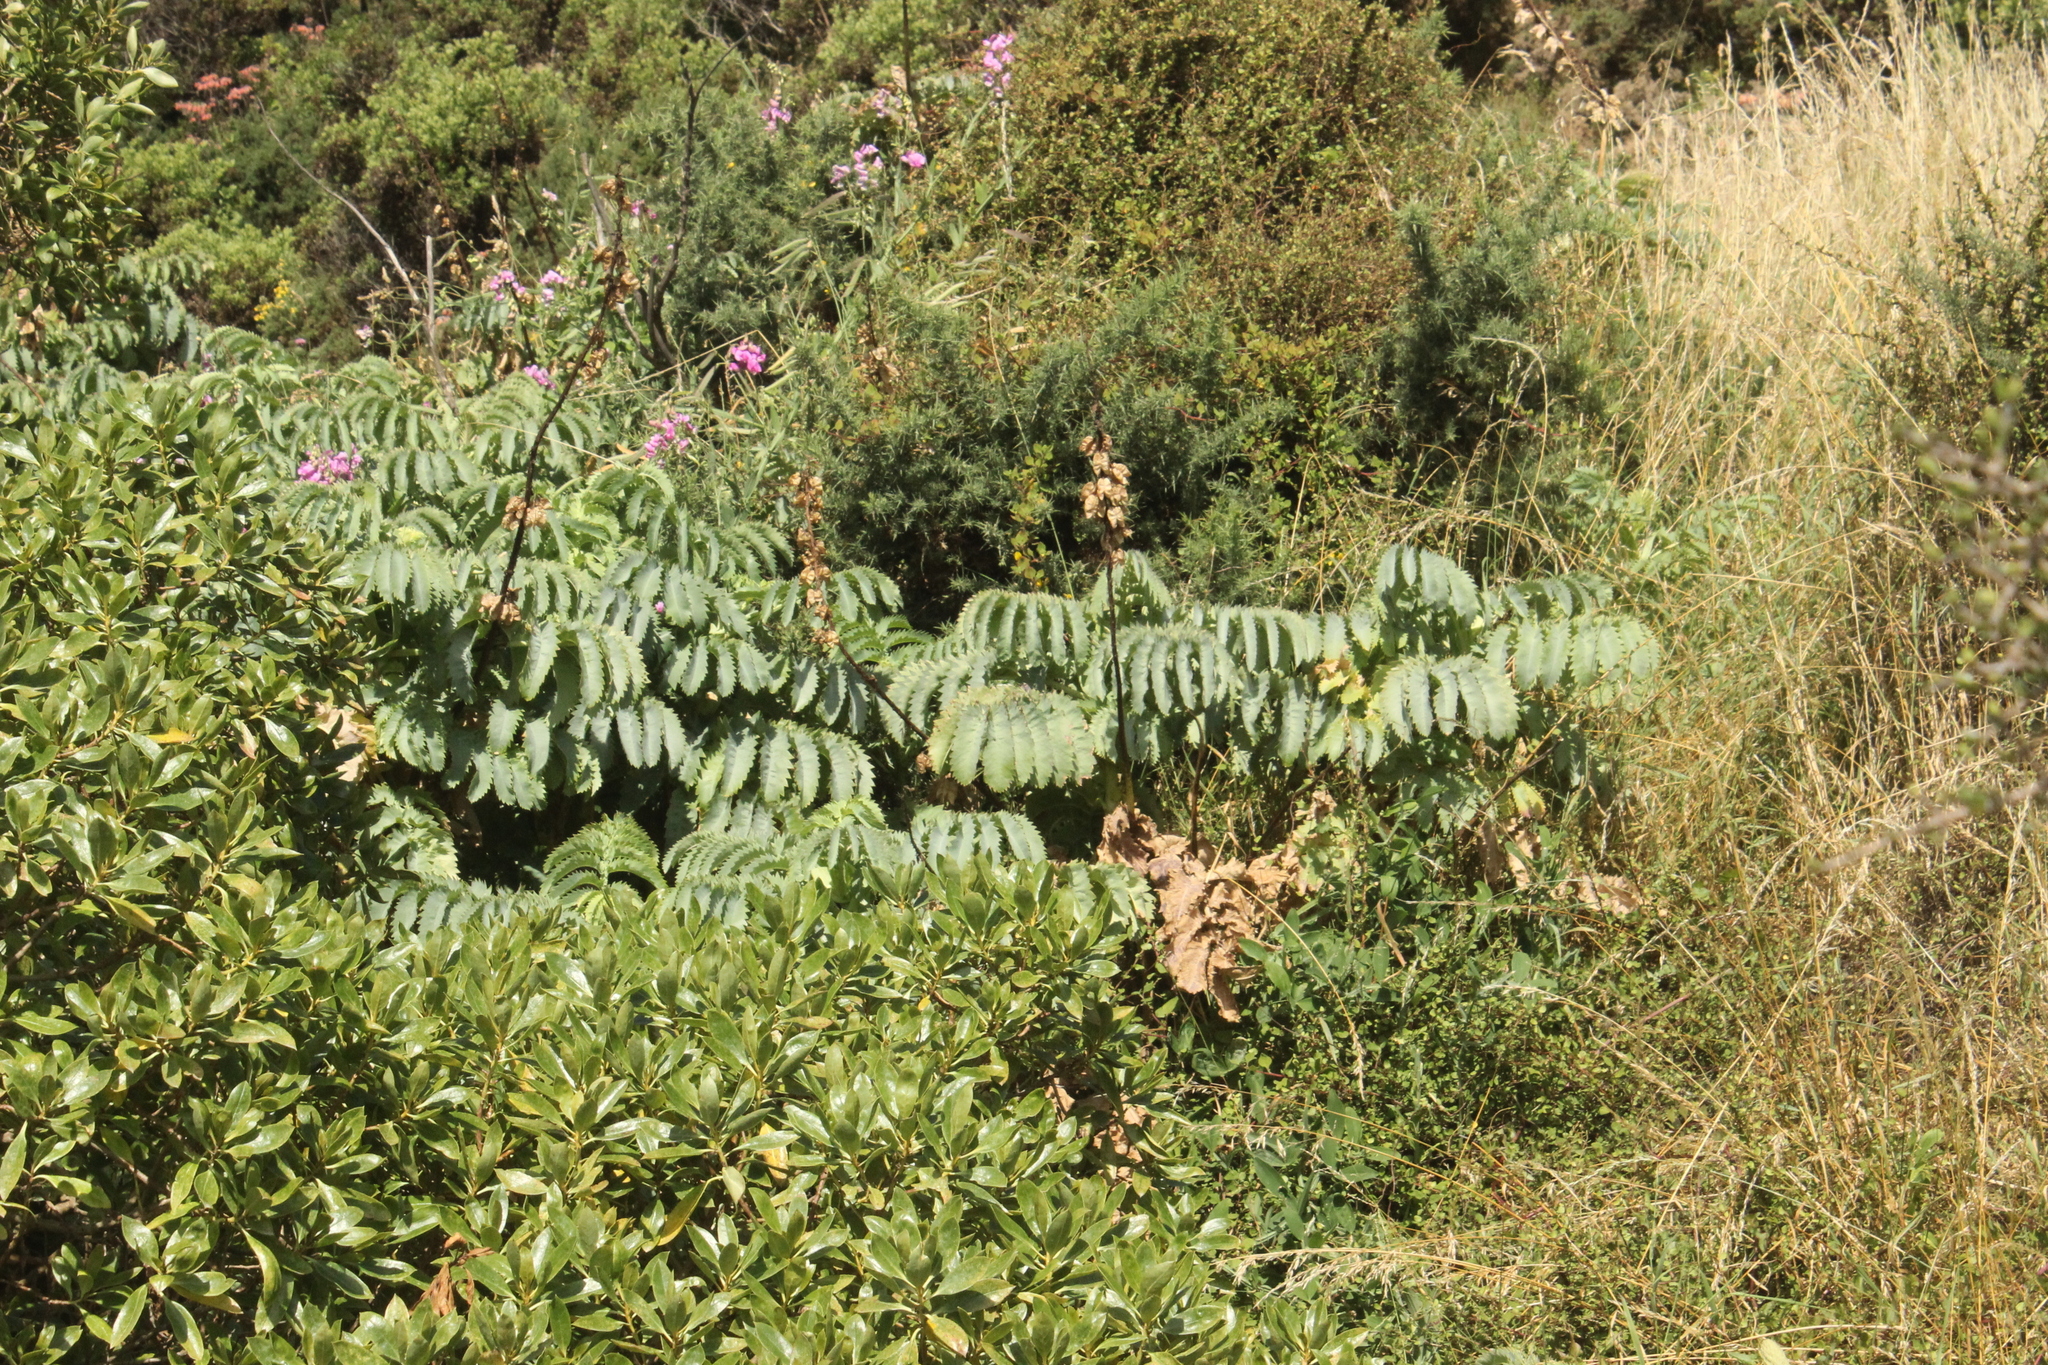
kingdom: Plantae
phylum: Tracheophyta
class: Magnoliopsida
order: Geraniales
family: Melianthaceae
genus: Melianthus
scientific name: Melianthus major
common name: Honey-flower
